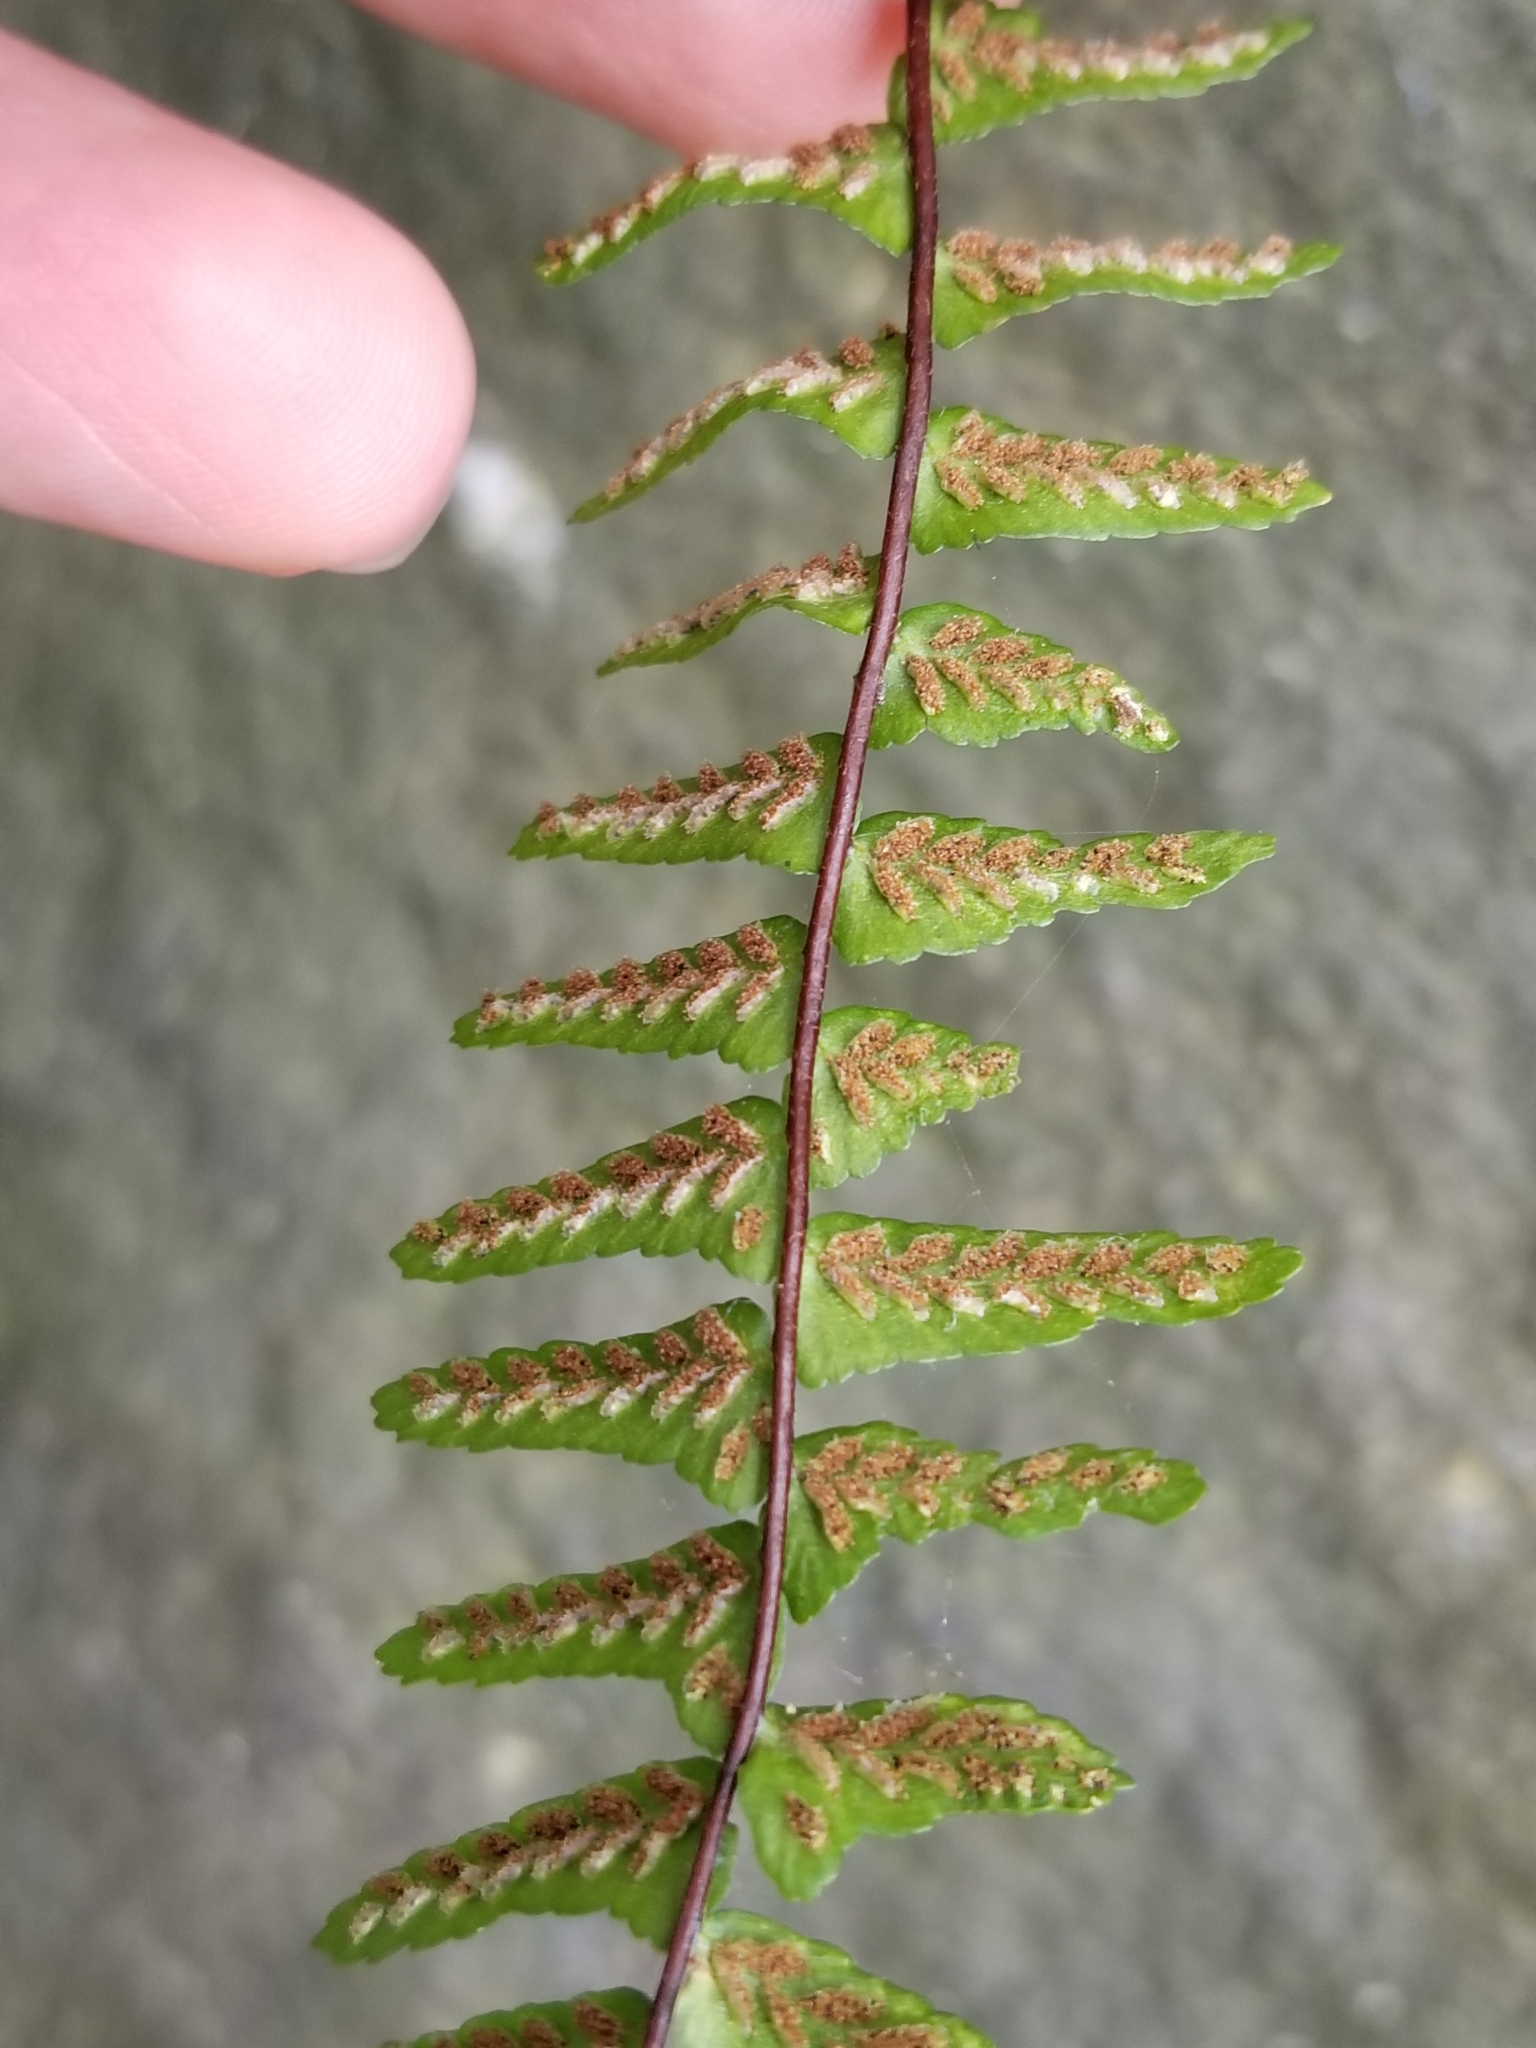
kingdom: Plantae
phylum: Tracheophyta
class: Polypodiopsida
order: Polypodiales
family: Aspleniaceae
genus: Asplenium
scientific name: Asplenium platyneuron
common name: Ebony spleenwort
